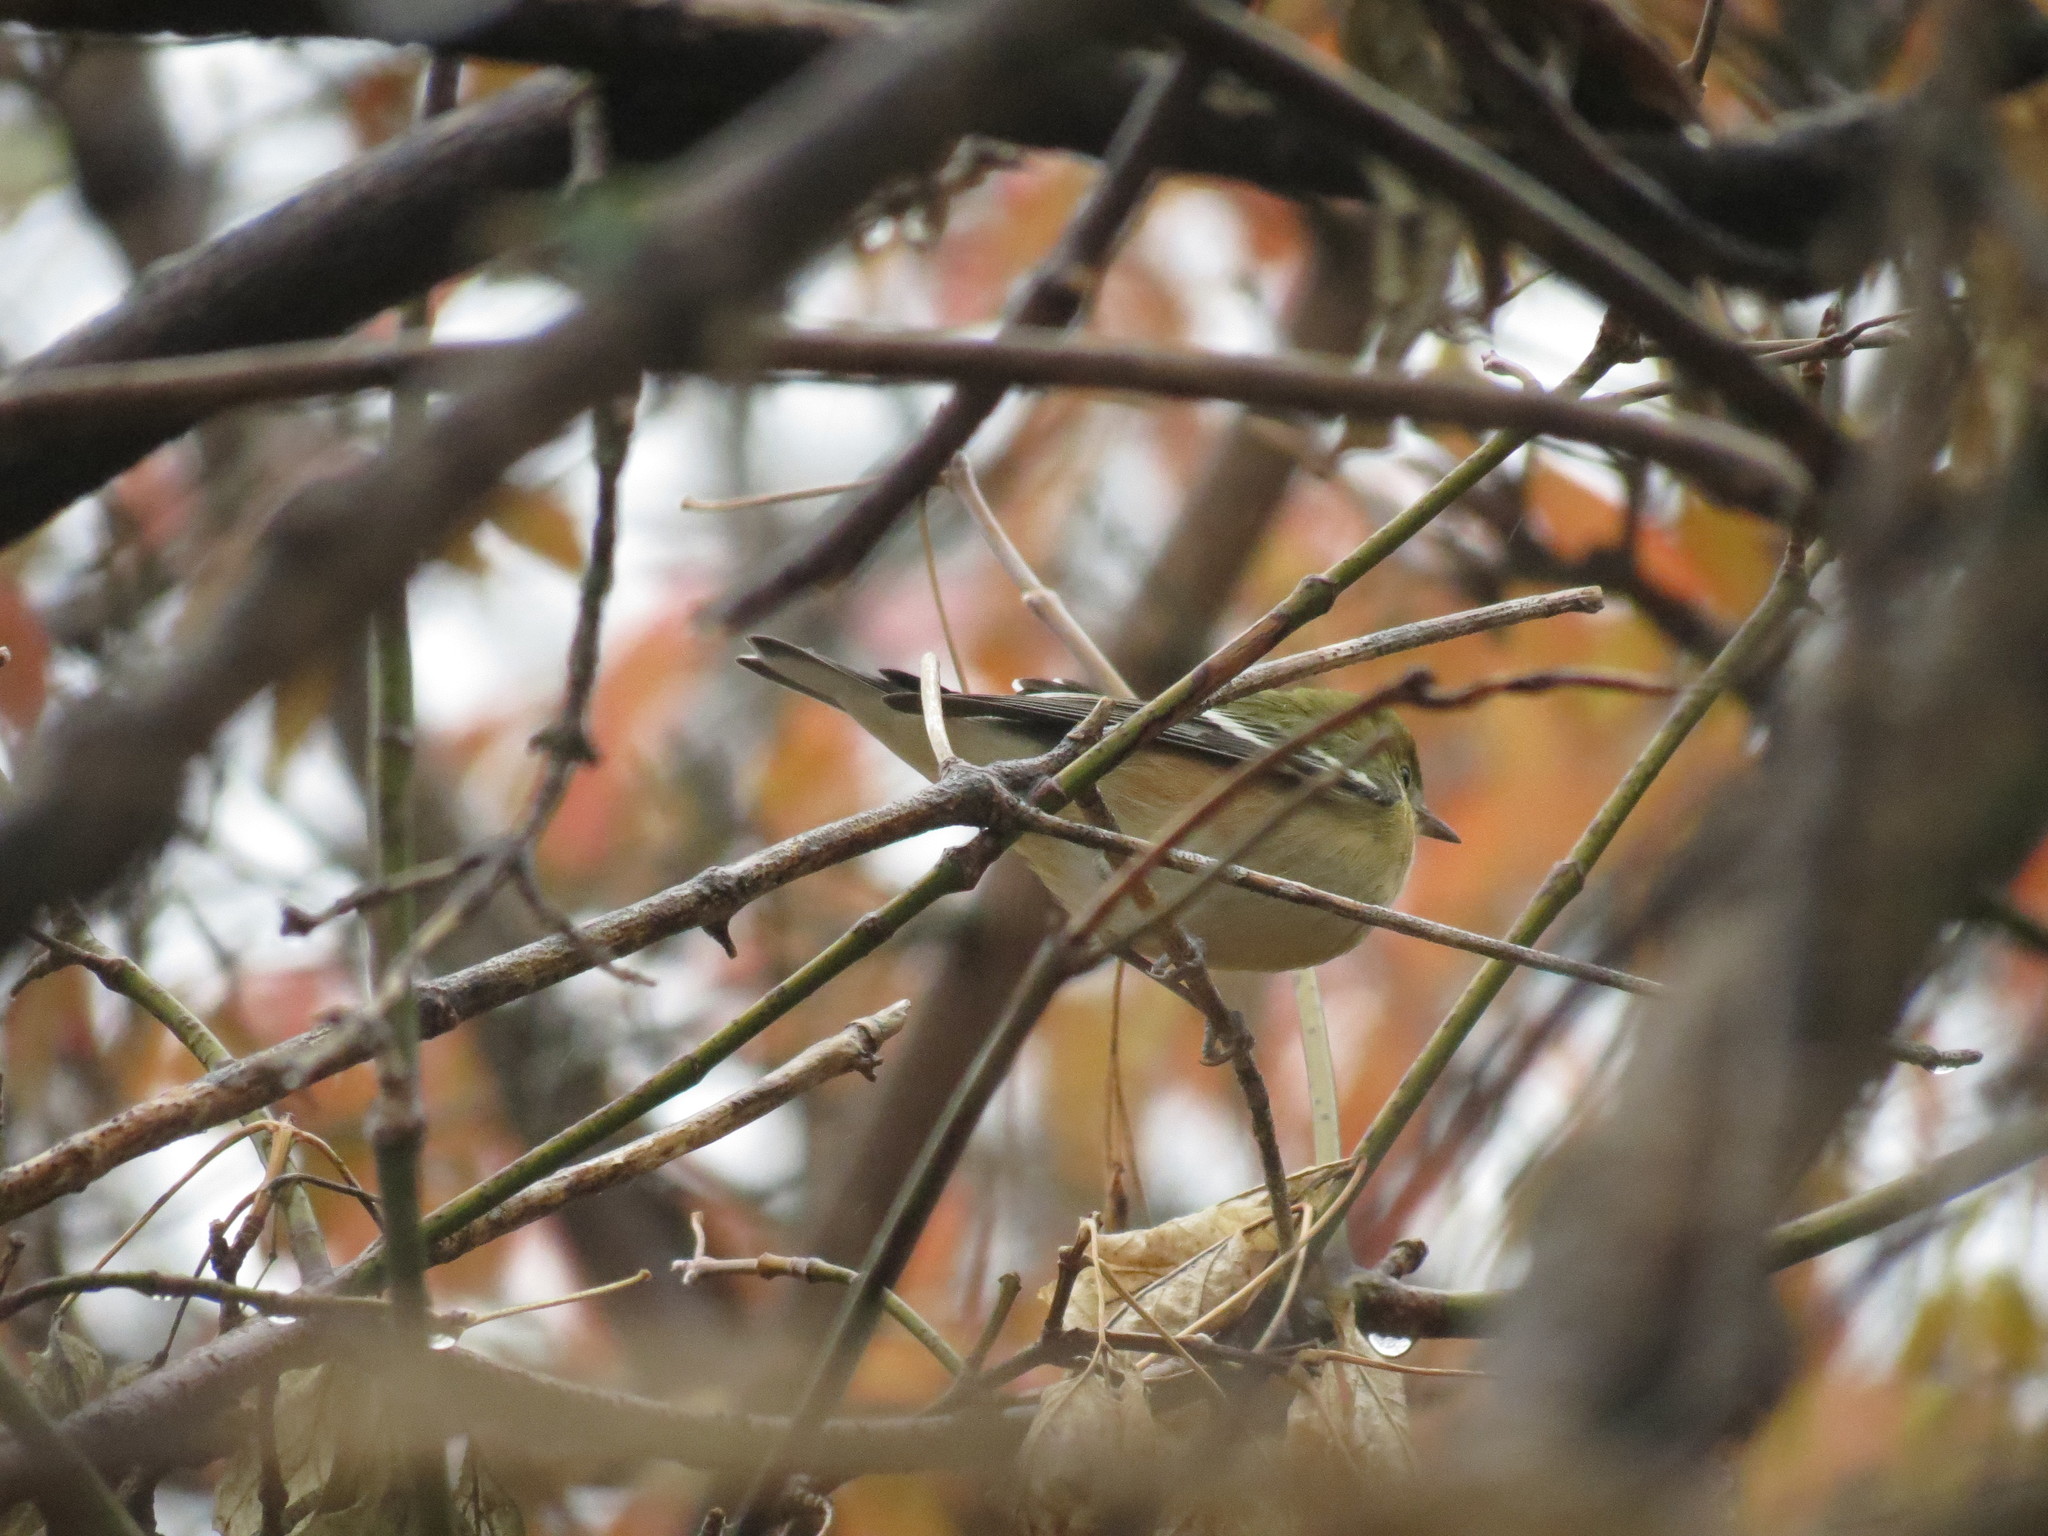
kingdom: Animalia
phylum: Chordata
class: Aves
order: Passeriformes
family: Parulidae
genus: Setophaga
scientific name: Setophaga castanea
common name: Bay-breasted warbler
